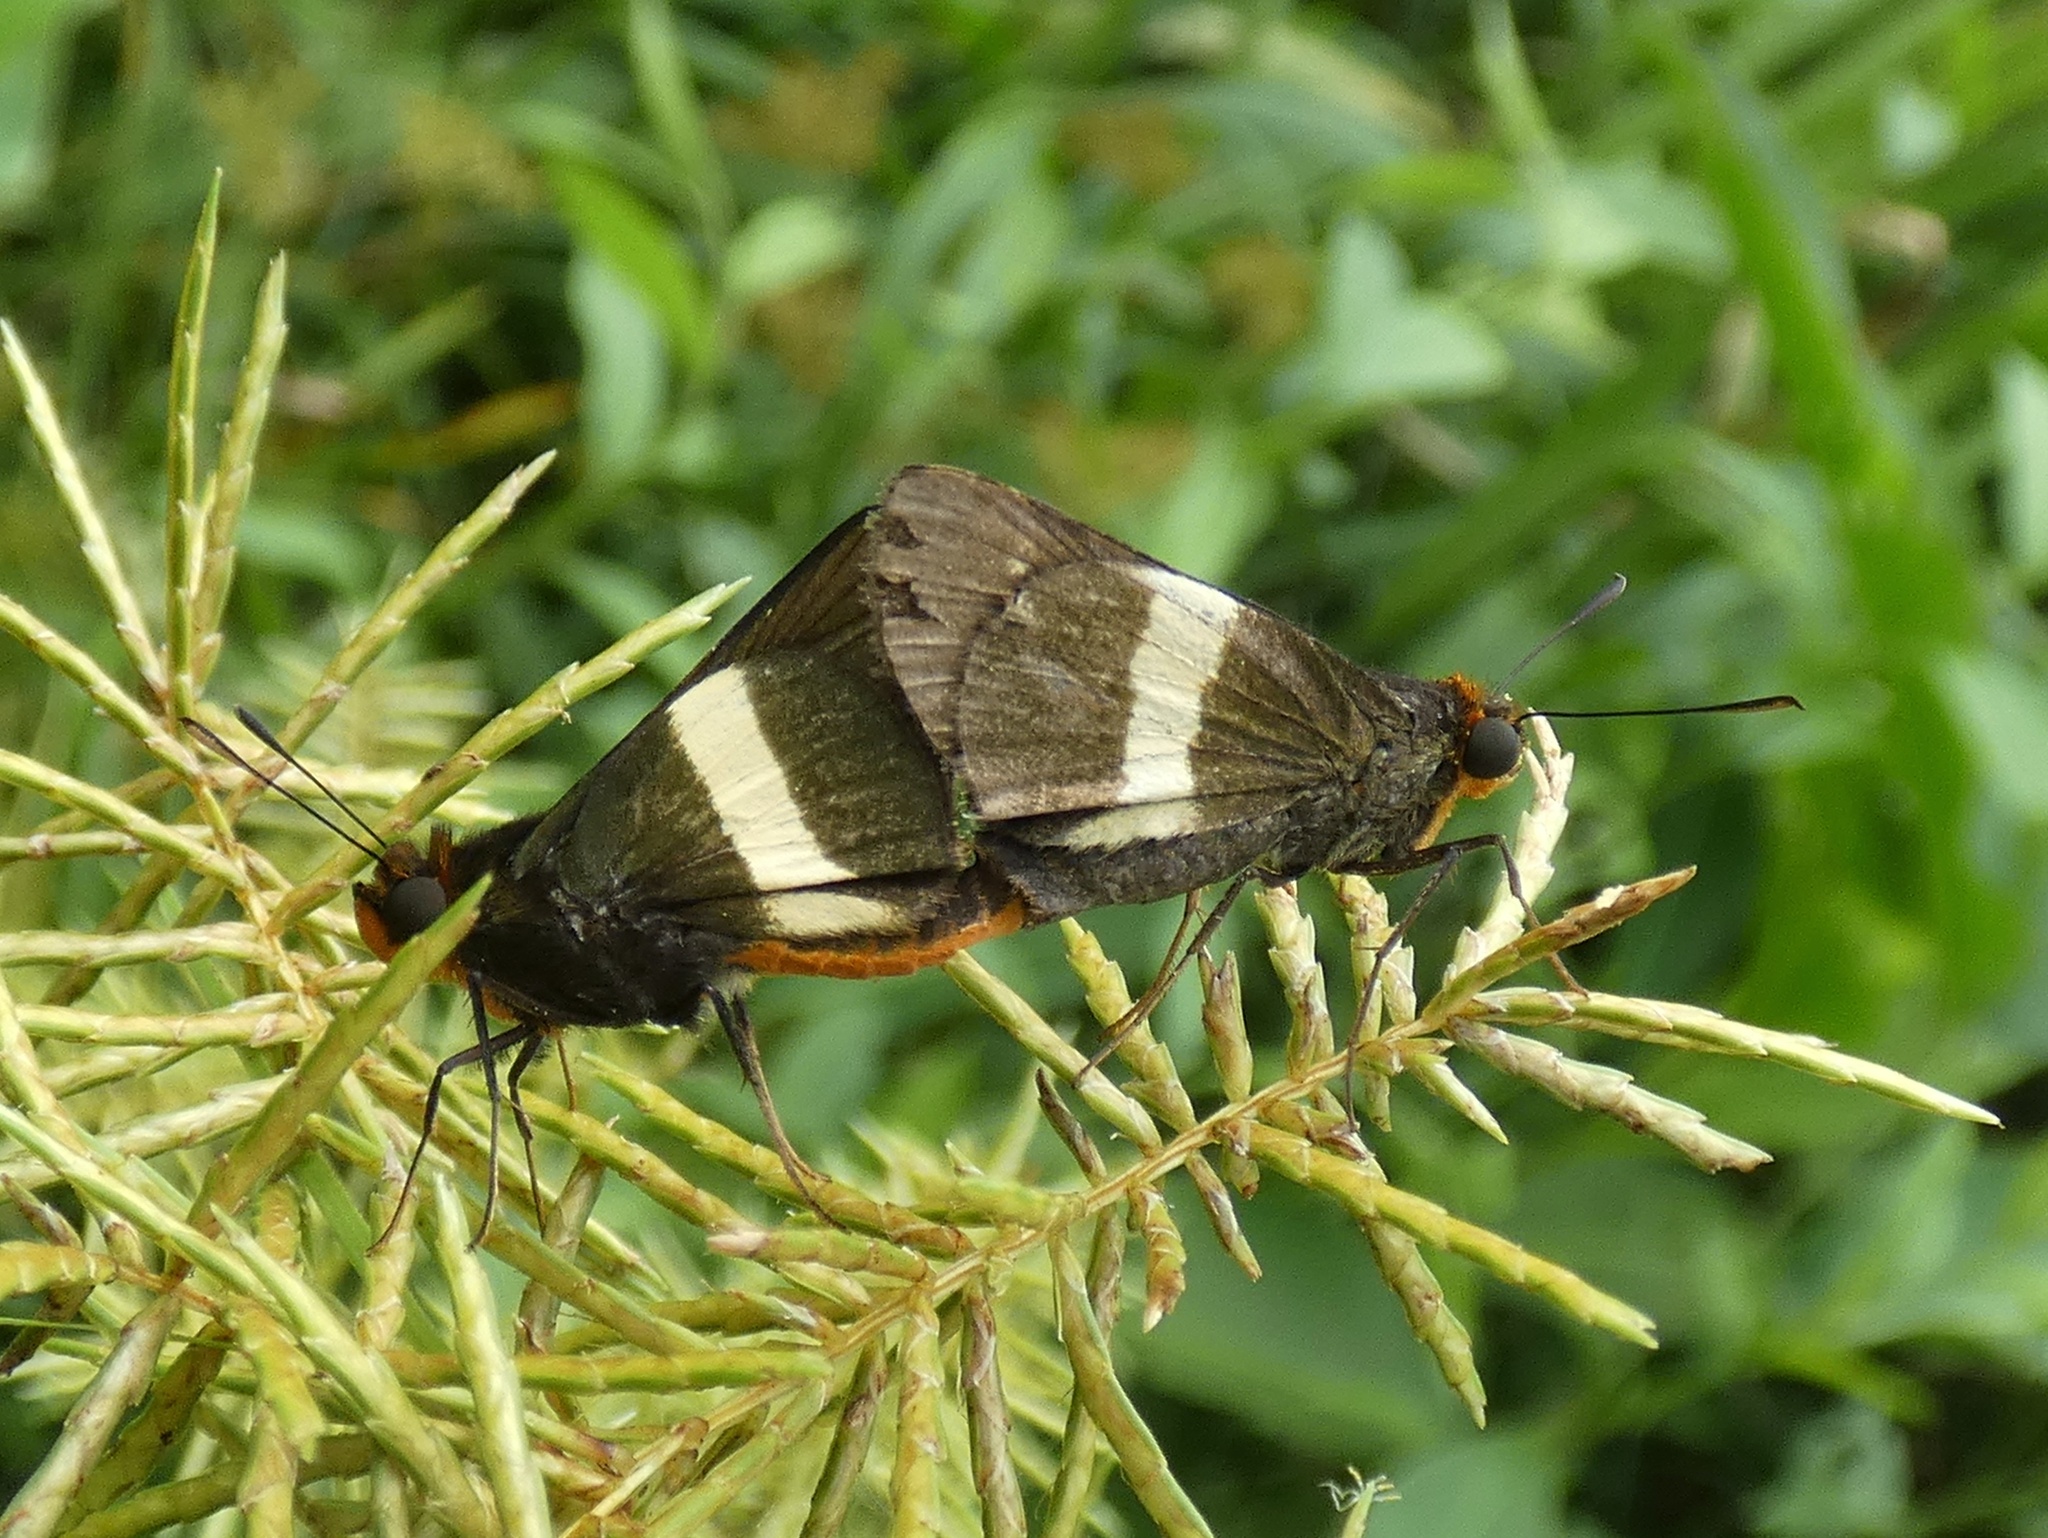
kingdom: Animalia
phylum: Arthropoda
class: Insecta
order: Lepidoptera
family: Hesperiidae
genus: Metron
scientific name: Metron chrysogastra
